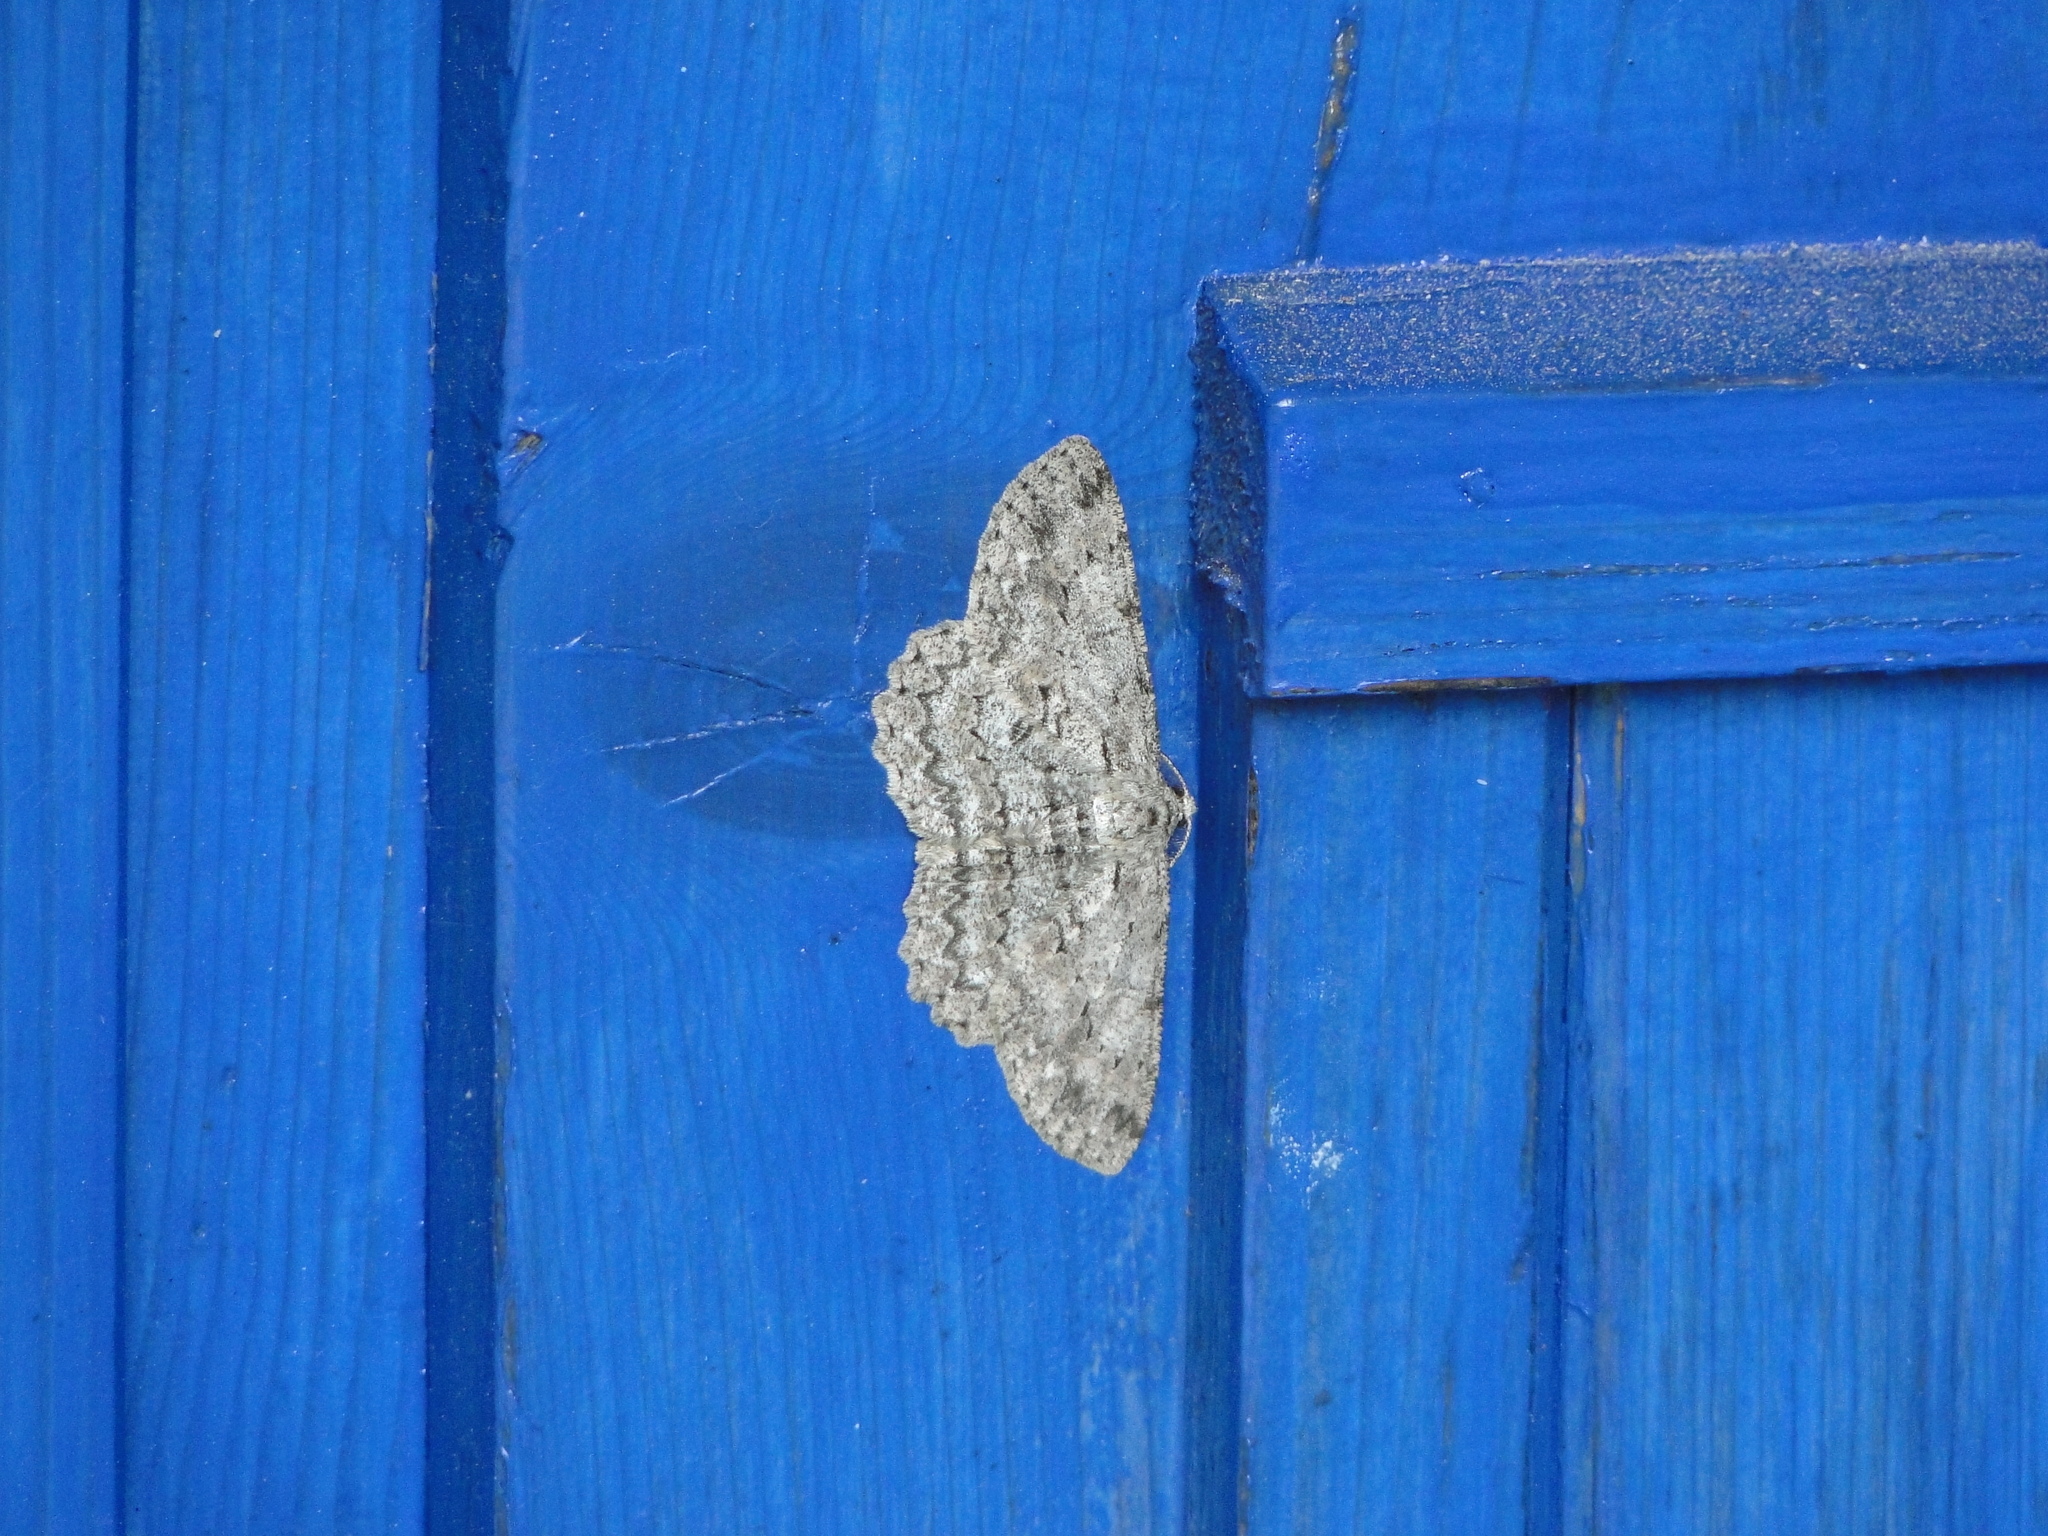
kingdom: Animalia
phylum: Arthropoda
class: Insecta
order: Lepidoptera
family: Geometridae
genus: Hypomecis
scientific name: Hypomecis punctinalis
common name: Pale oak beauty
